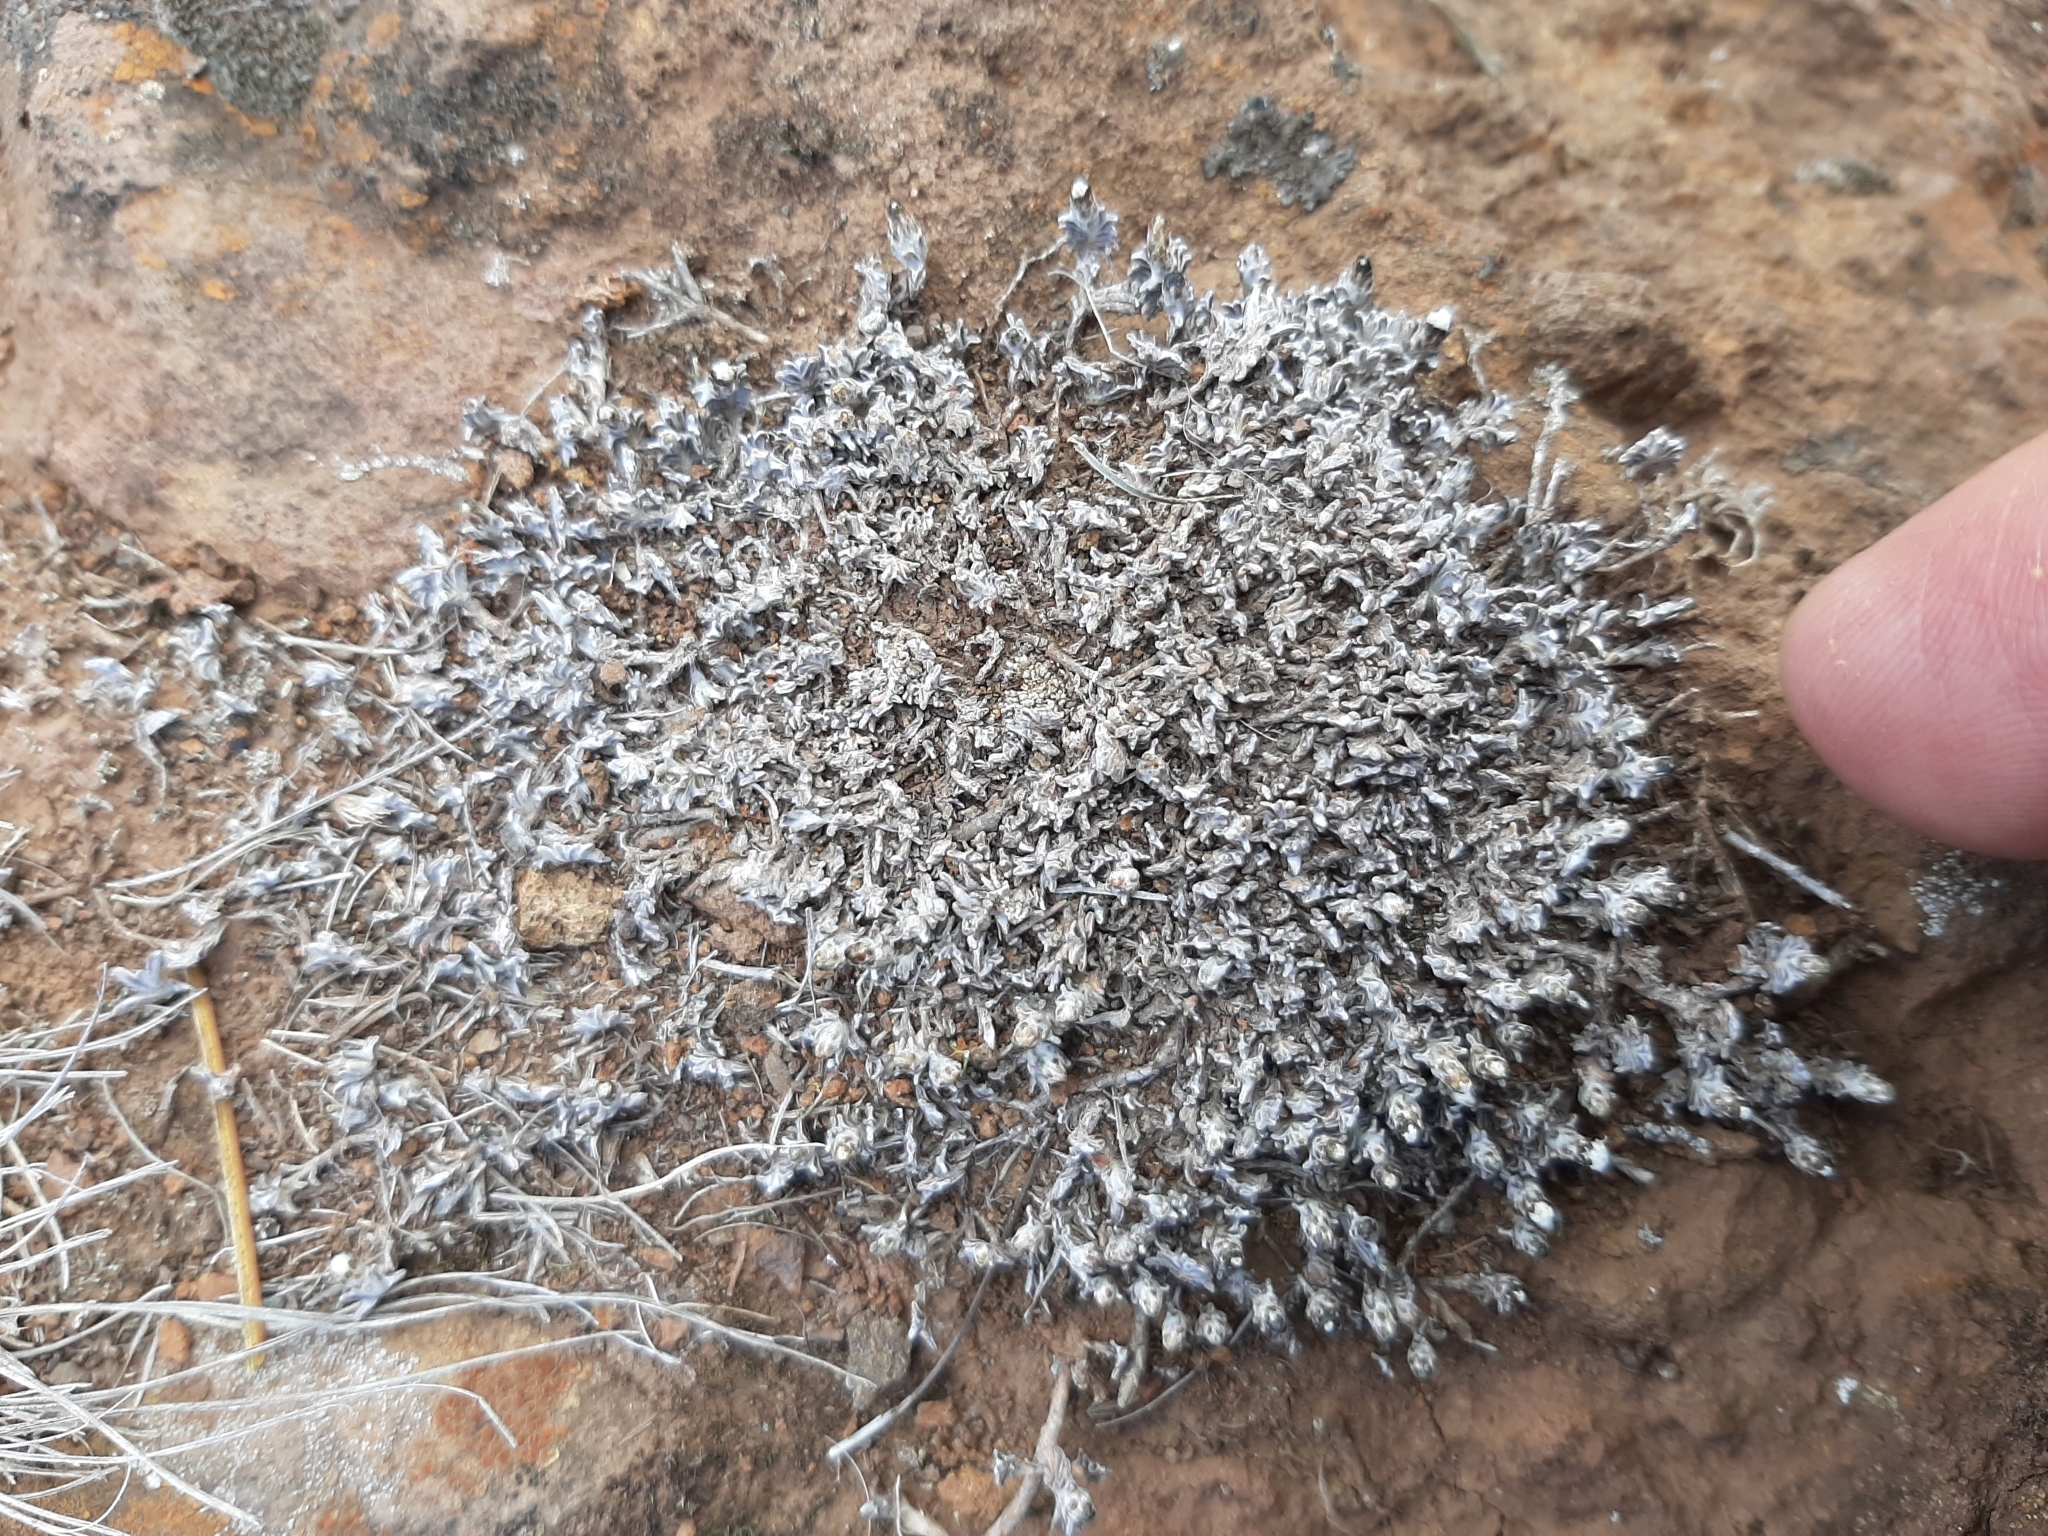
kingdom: Plantae
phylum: Tracheophyta
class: Magnoliopsida
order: Asterales
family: Asteraceae
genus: Raoulia
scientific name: Raoulia monroi
